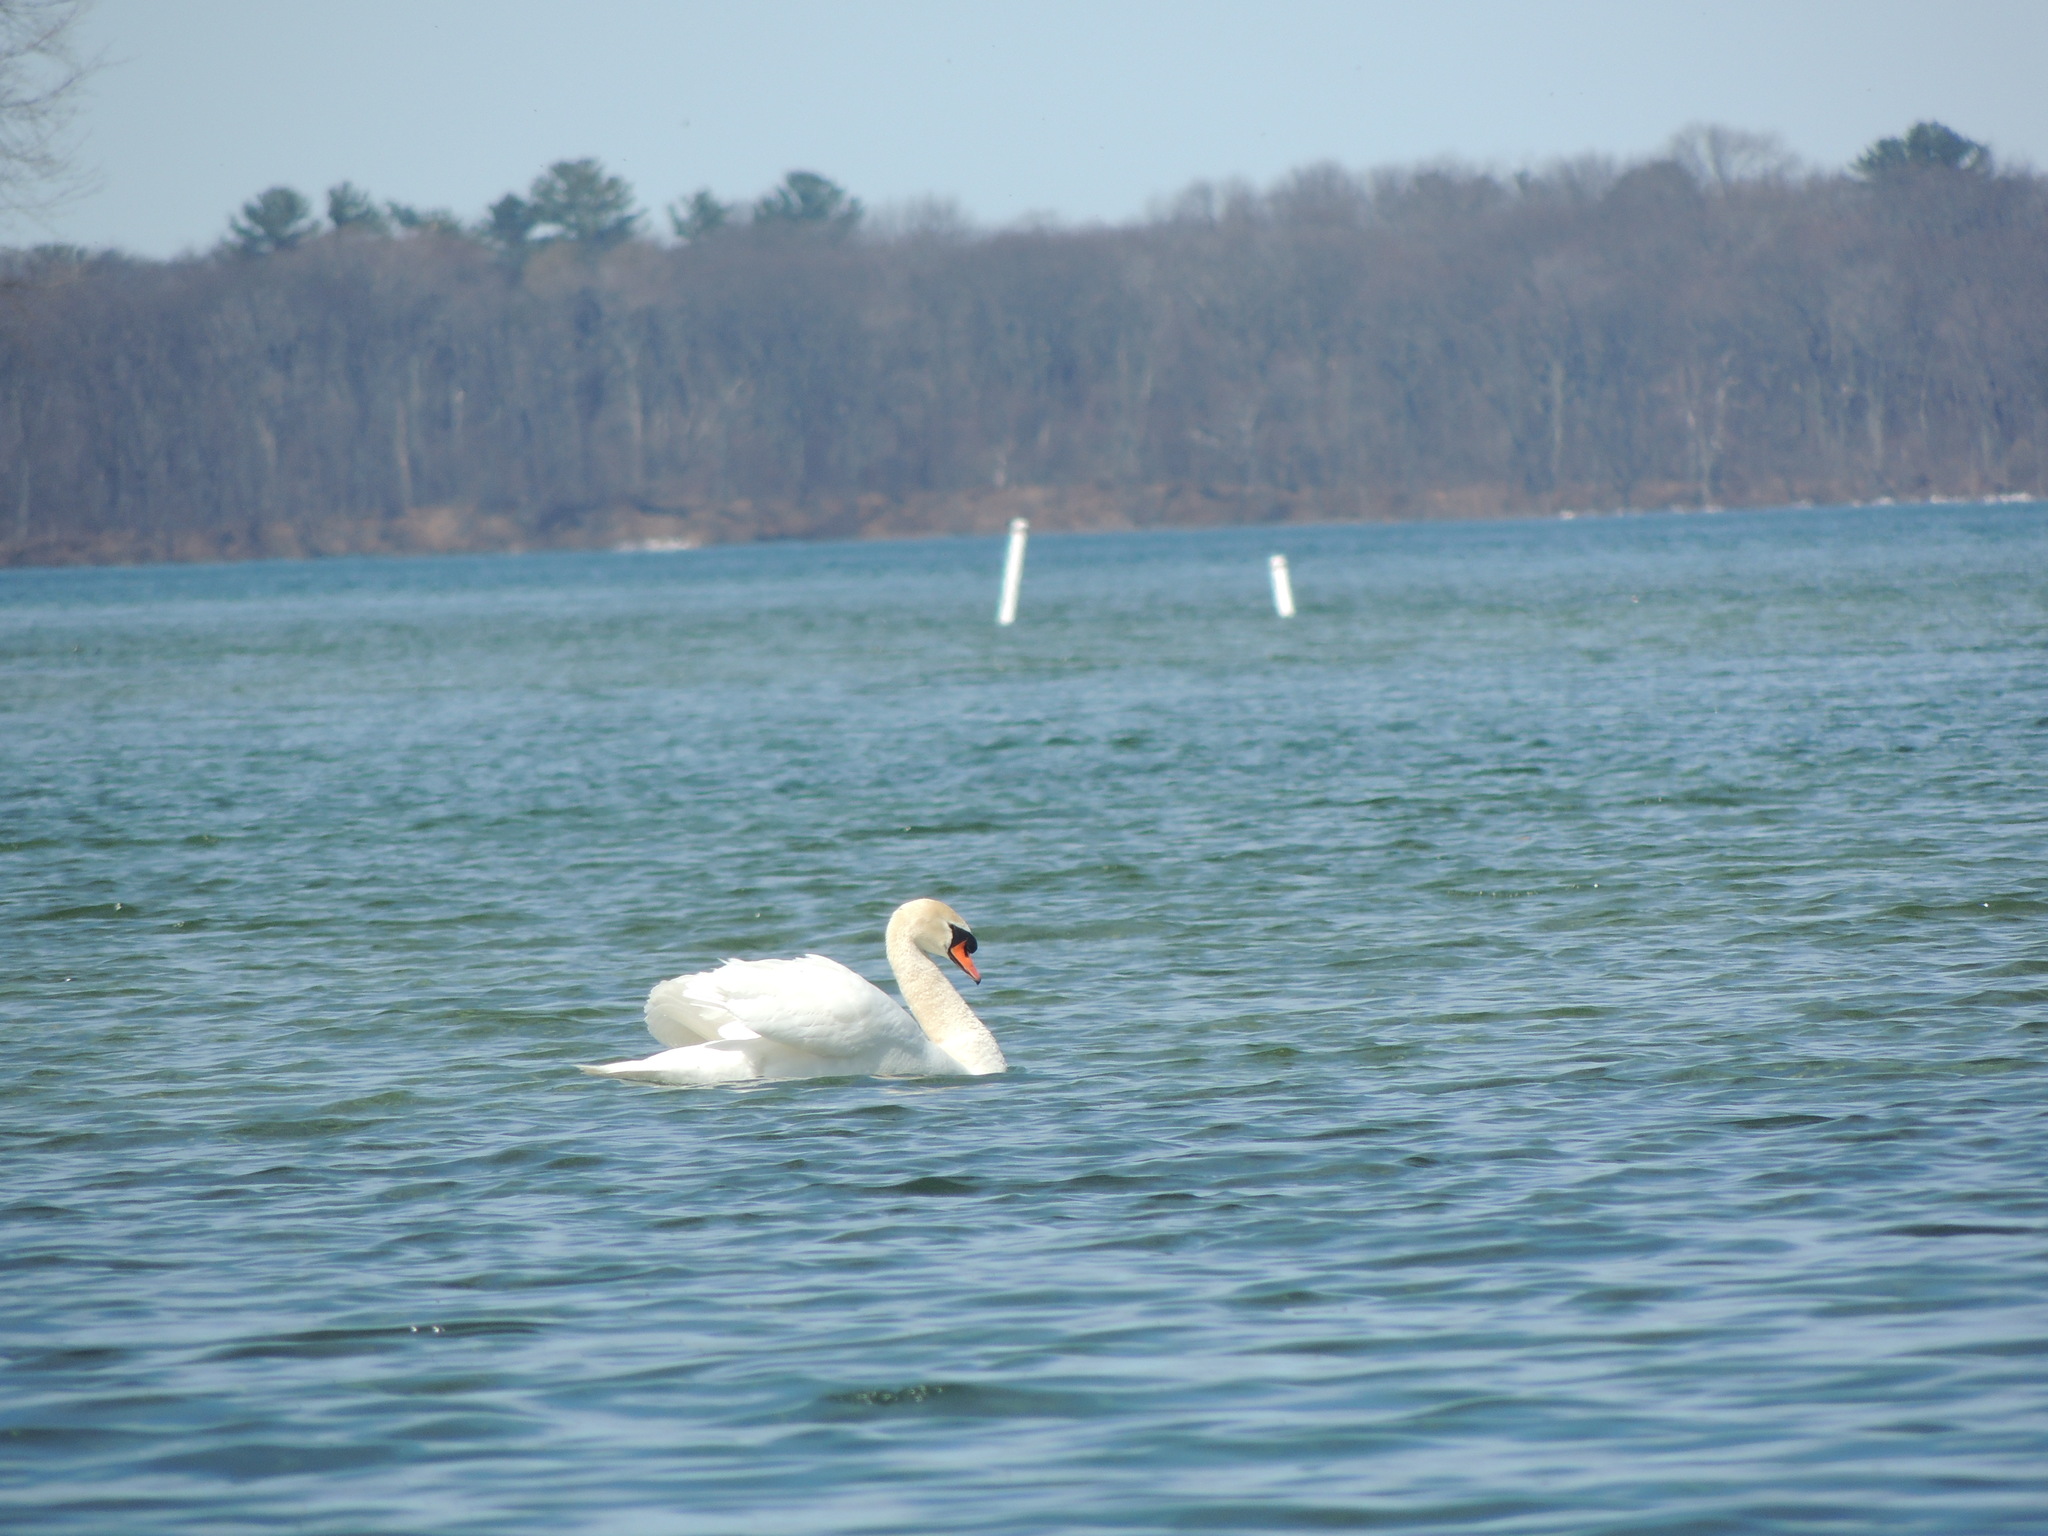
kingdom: Animalia
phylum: Chordata
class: Aves
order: Anseriformes
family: Anatidae
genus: Cygnus
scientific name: Cygnus olor
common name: Mute swan
